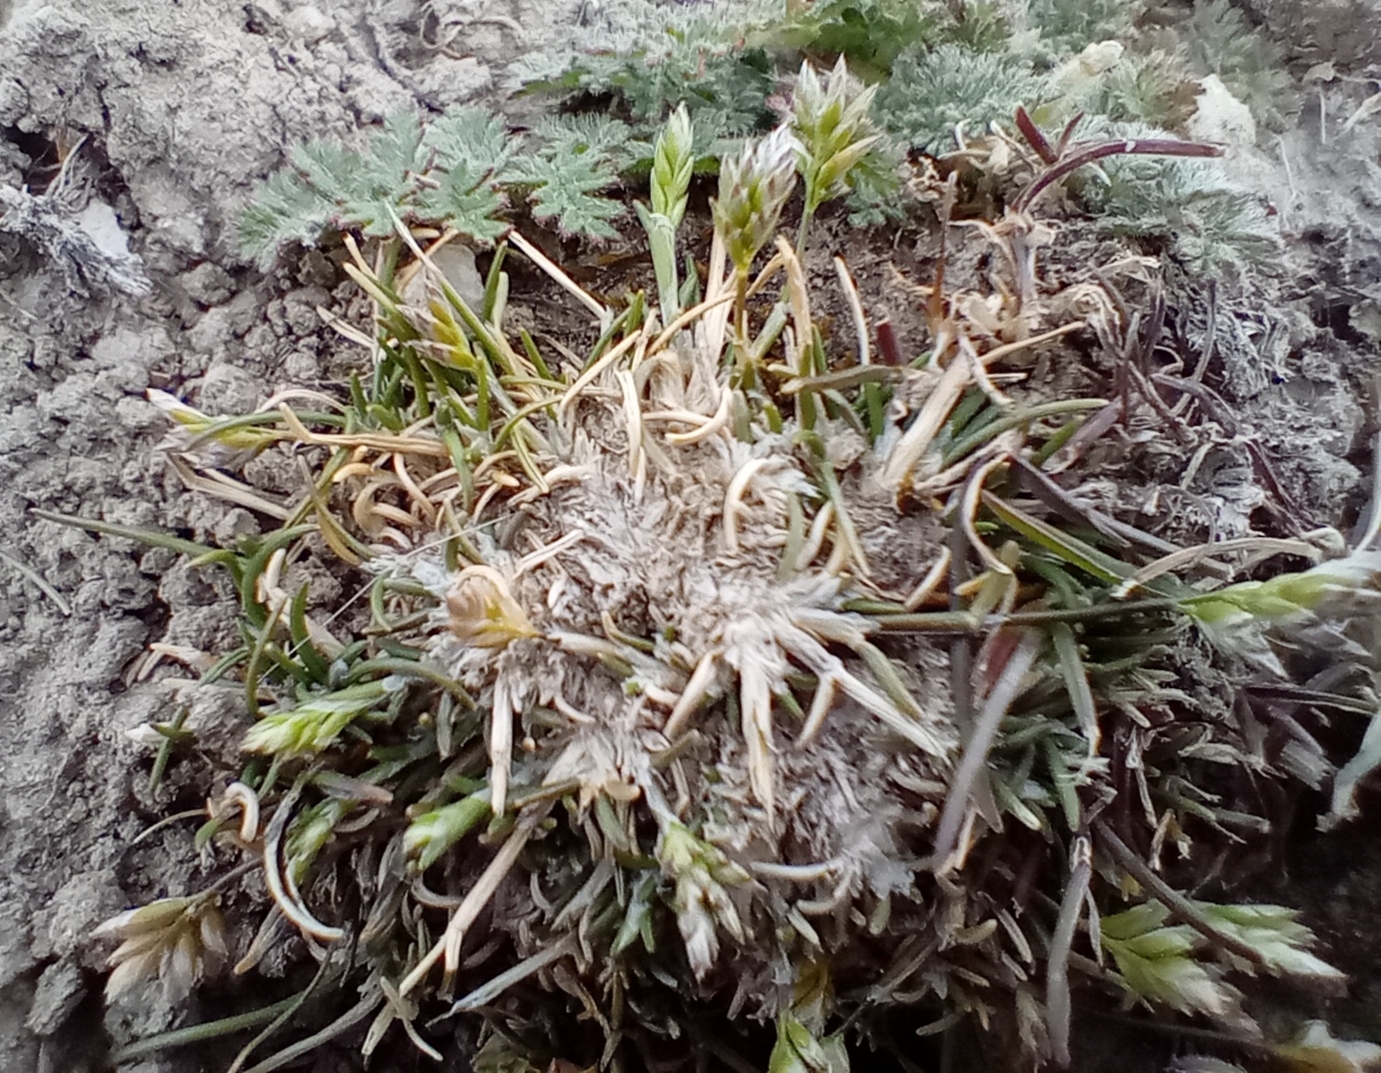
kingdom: Plantae
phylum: Tracheophyta
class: Liliopsida
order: Poales
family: Poaceae
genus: Poa
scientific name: Poa maniototo
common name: Desert poa
